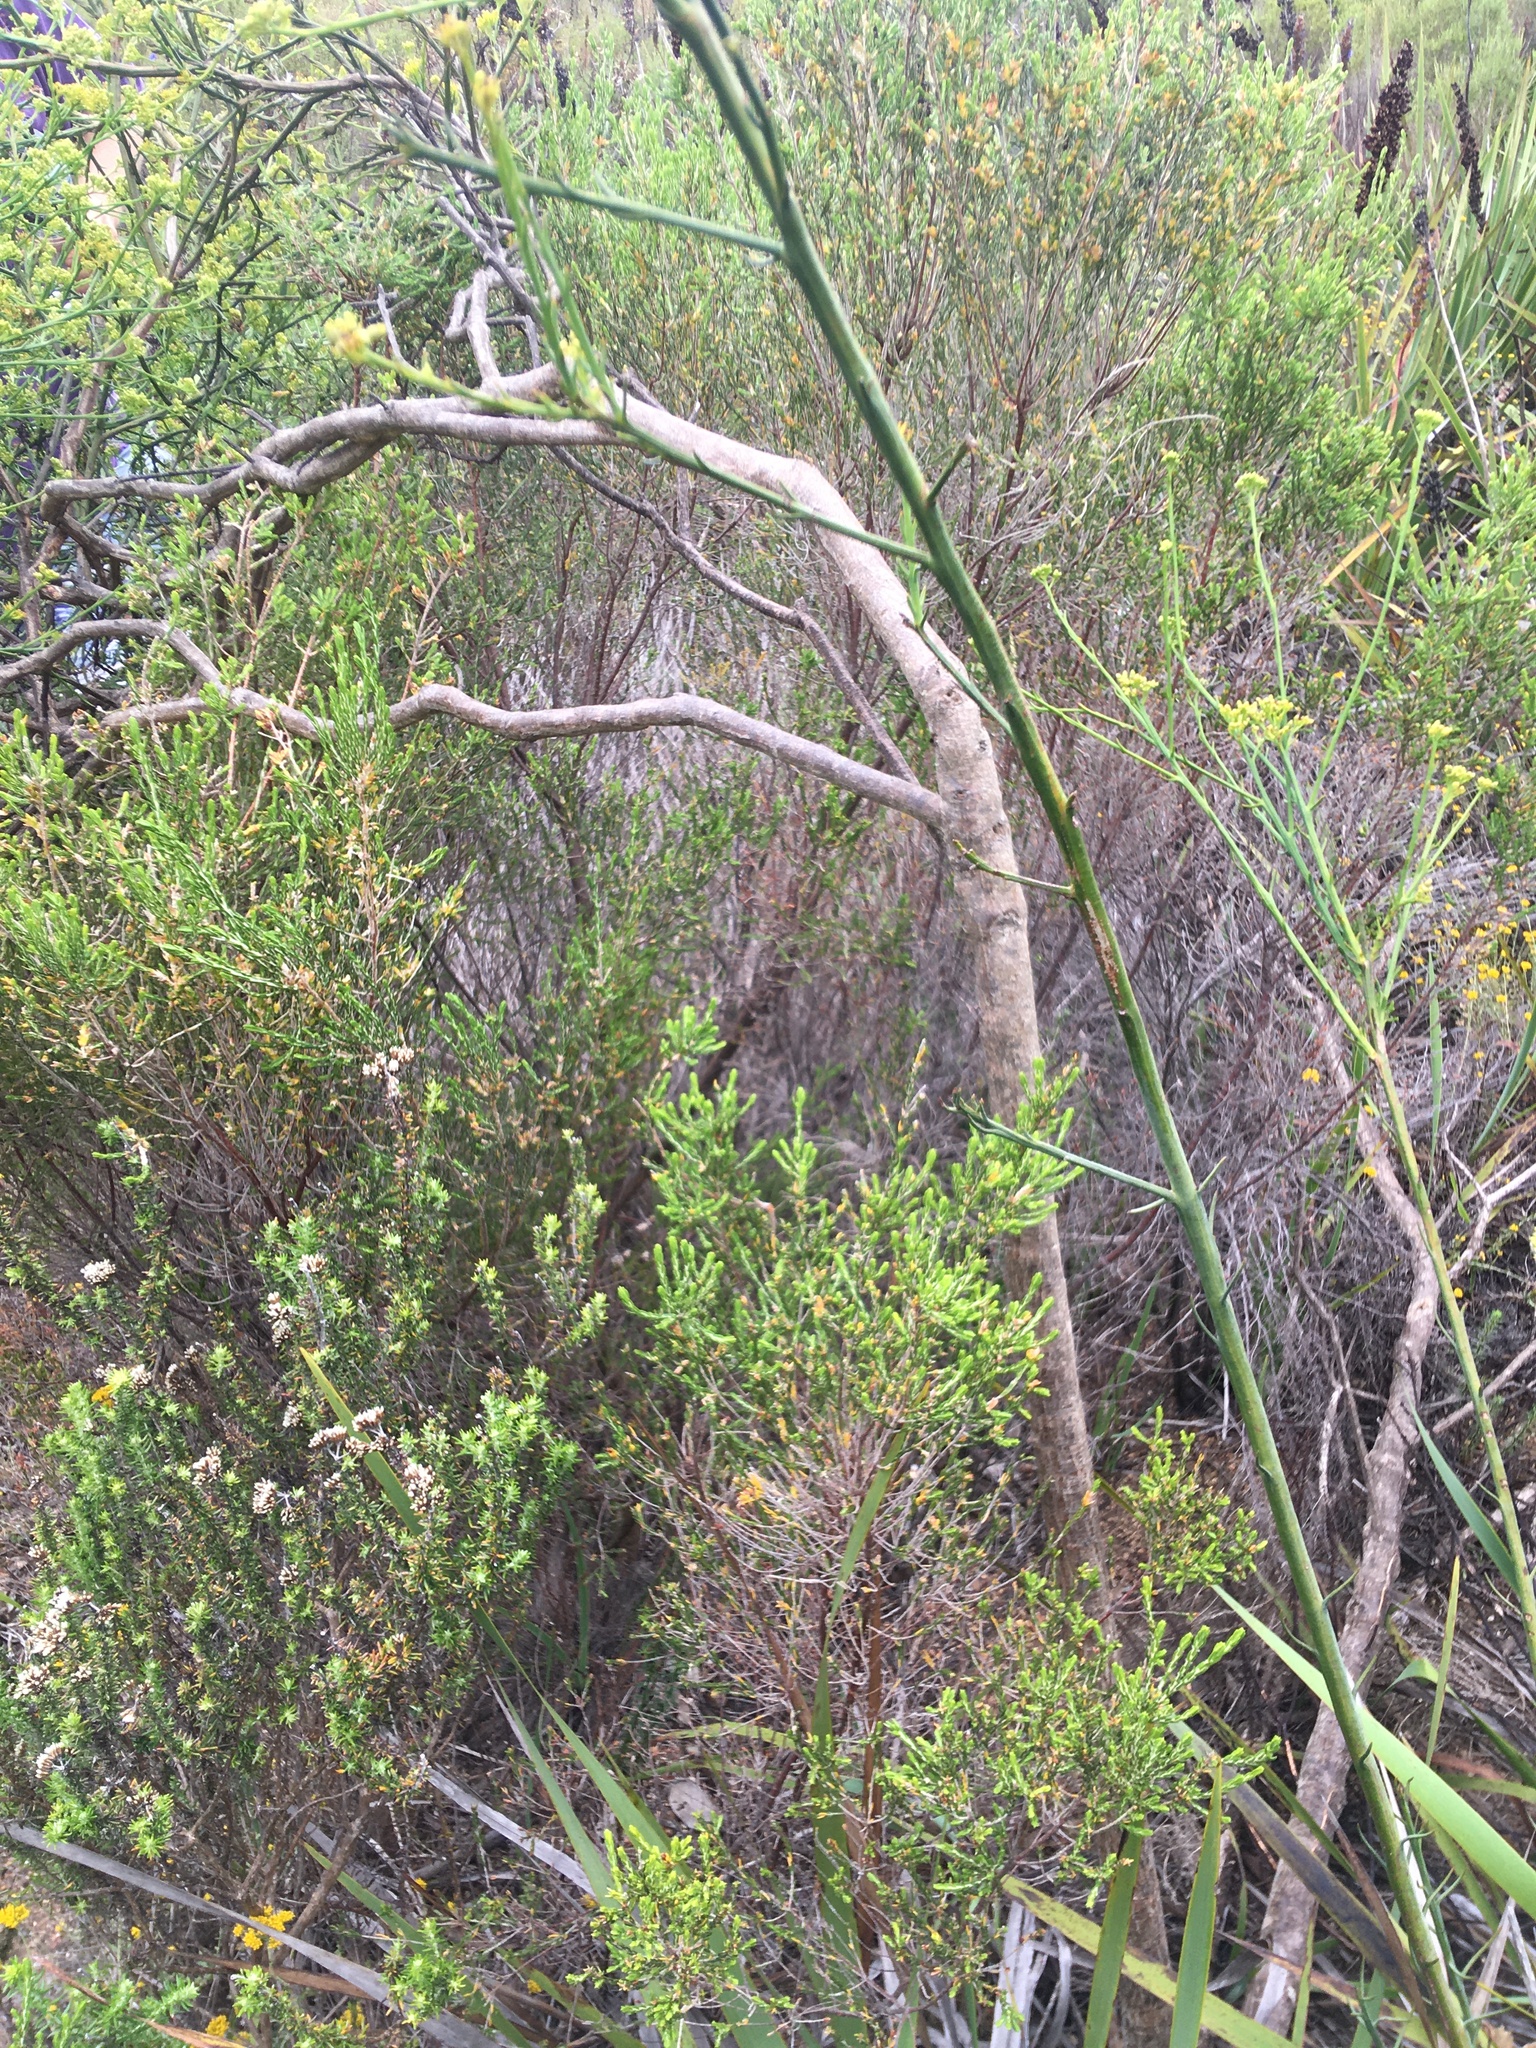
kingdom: Plantae
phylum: Tracheophyta
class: Magnoliopsida
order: Santalales
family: Thesiaceae
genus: Thesium
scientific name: Thesium strictum
